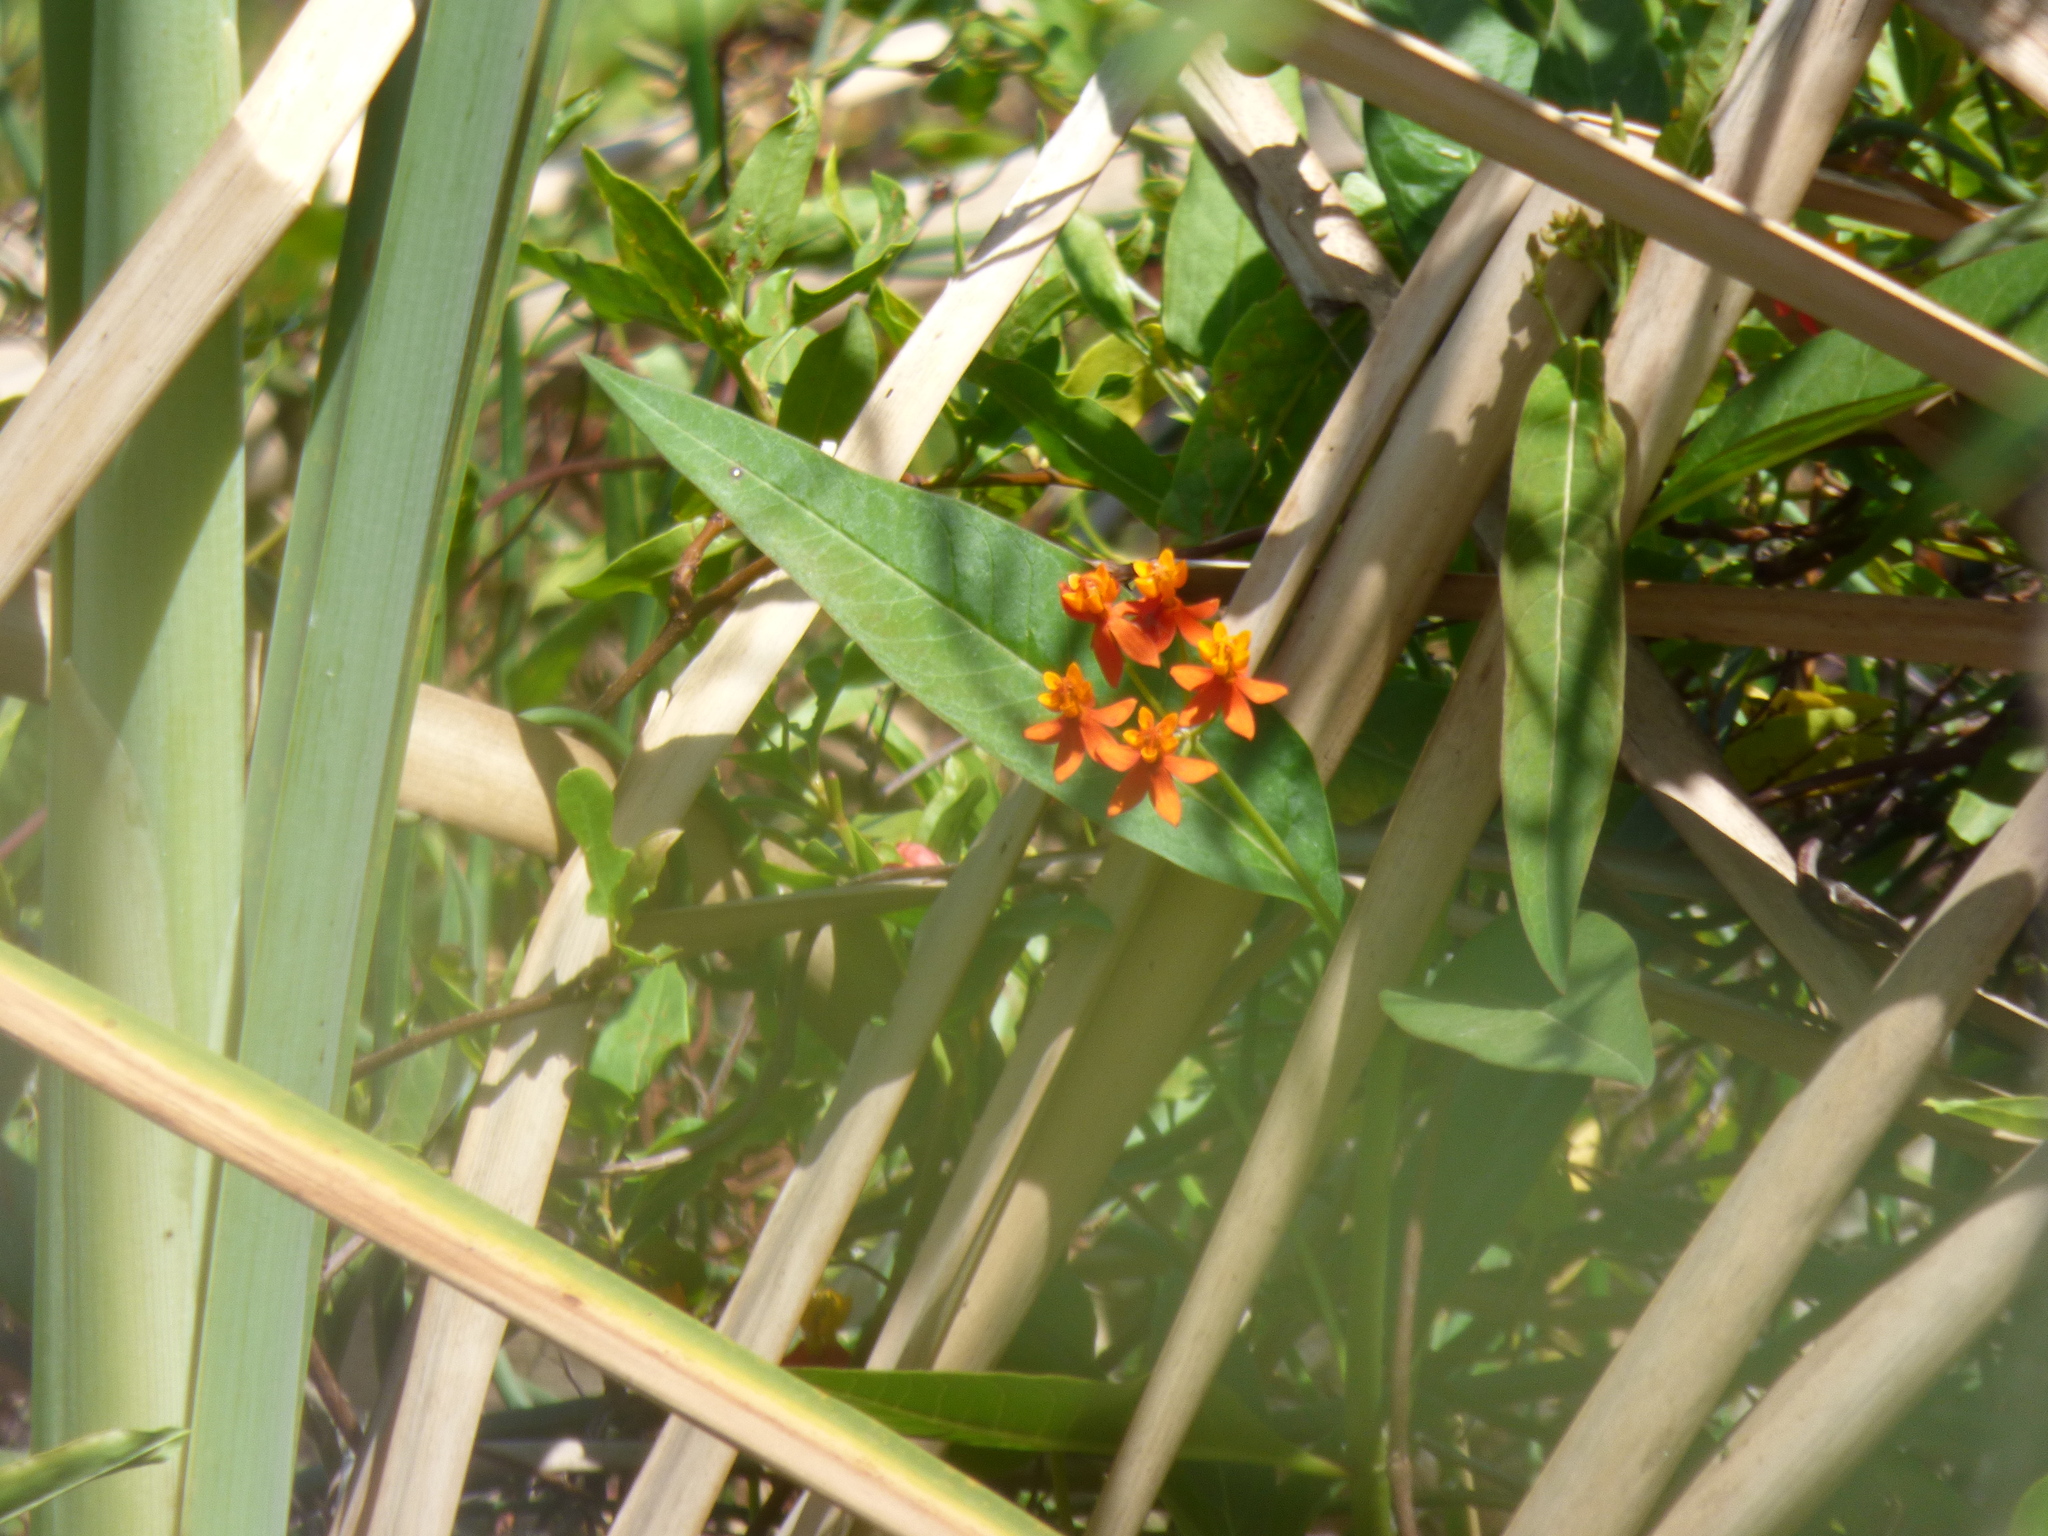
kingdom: Plantae
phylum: Tracheophyta
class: Magnoliopsida
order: Gentianales
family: Apocynaceae
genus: Asclepias
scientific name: Asclepias curassavica
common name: Bloodflower
